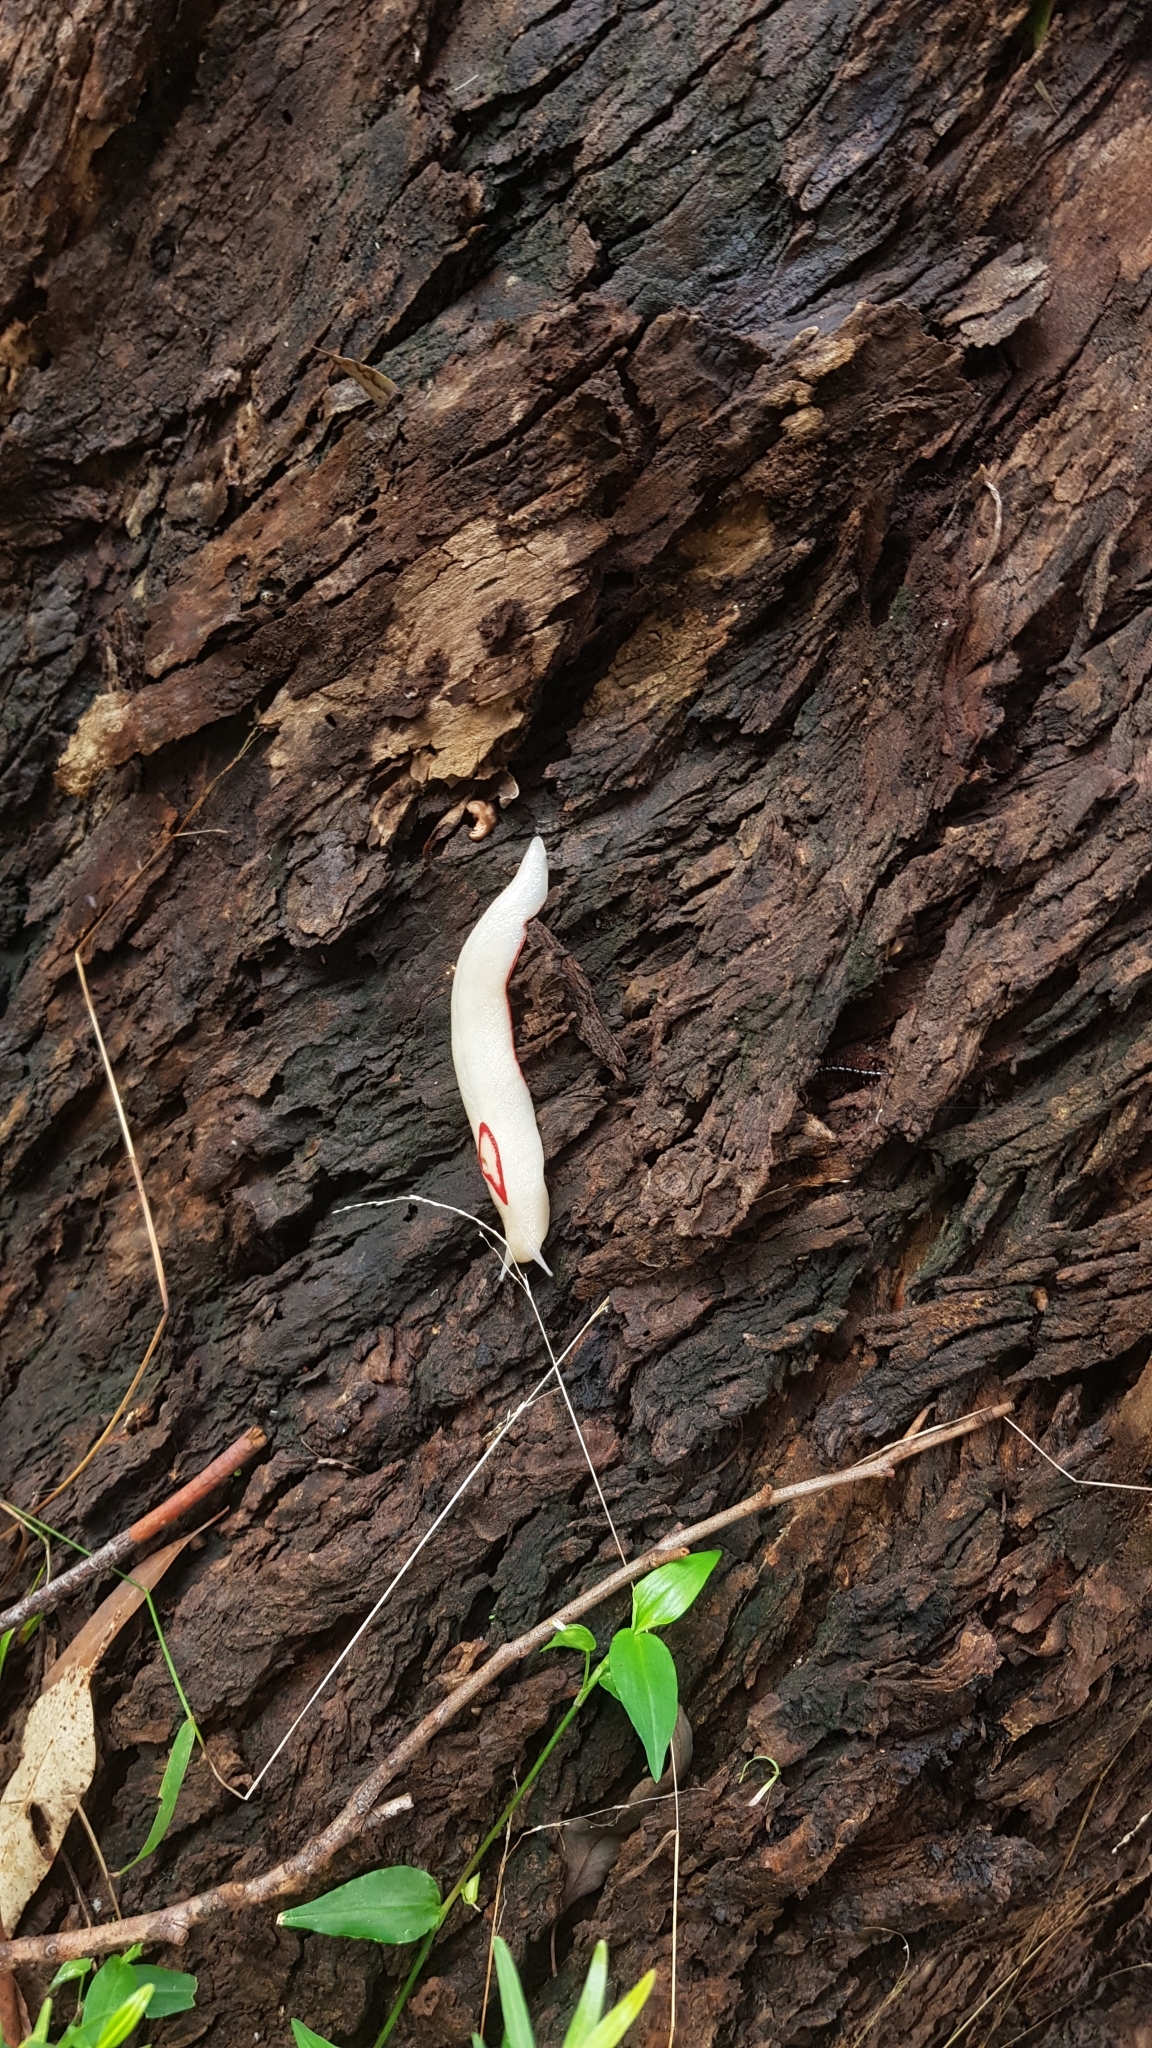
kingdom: Animalia
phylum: Mollusca
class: Gastropoda
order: Stylommatophora
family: Athoracophoridae
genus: Triboniophorus
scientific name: Triboniophorus graeffei
